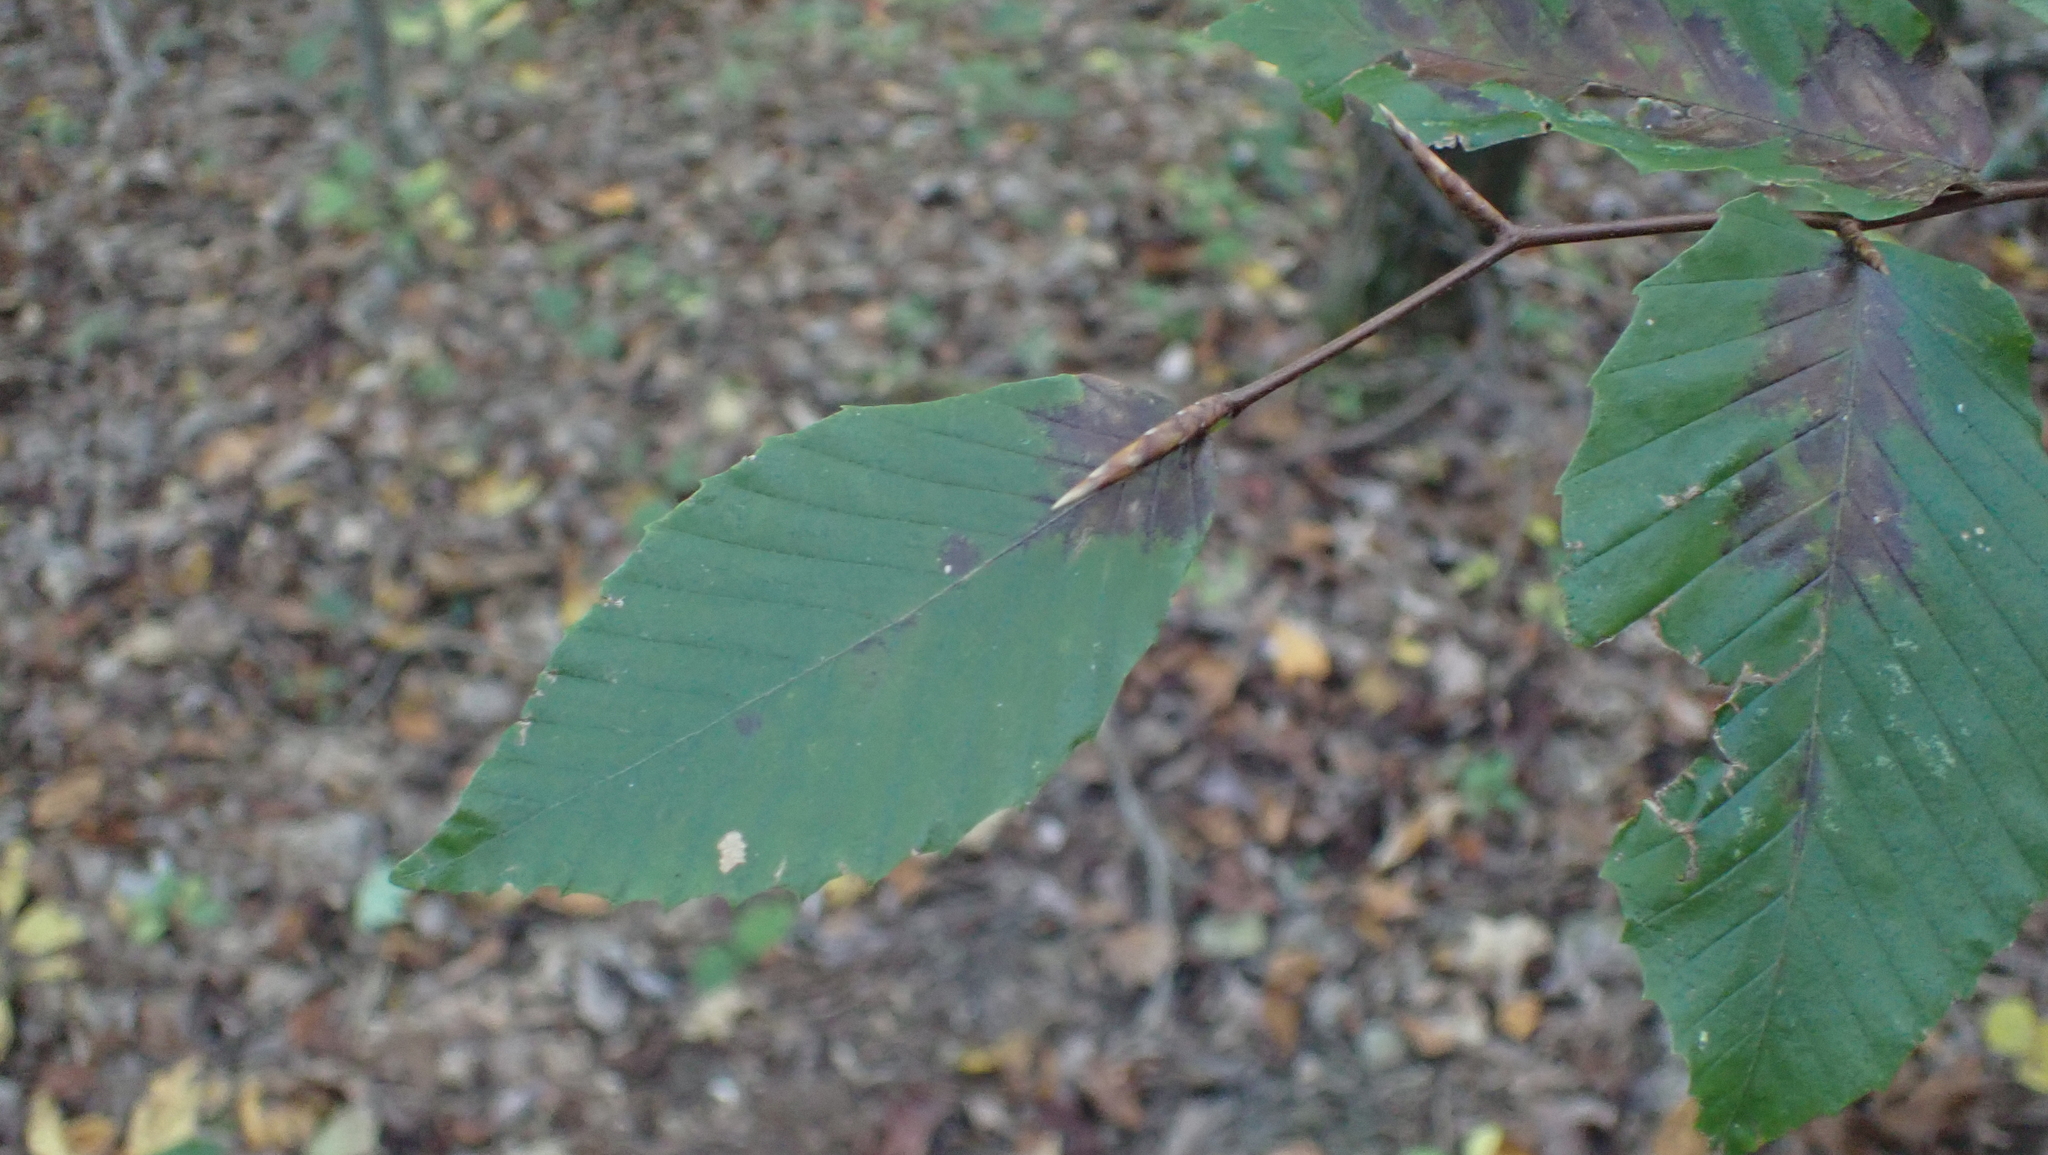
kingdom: Plantae
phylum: Tracheophyta
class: Magnoliopsida
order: Fagales
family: Fagaceae
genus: Fagus
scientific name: Fagus grandifolia
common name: American beech
